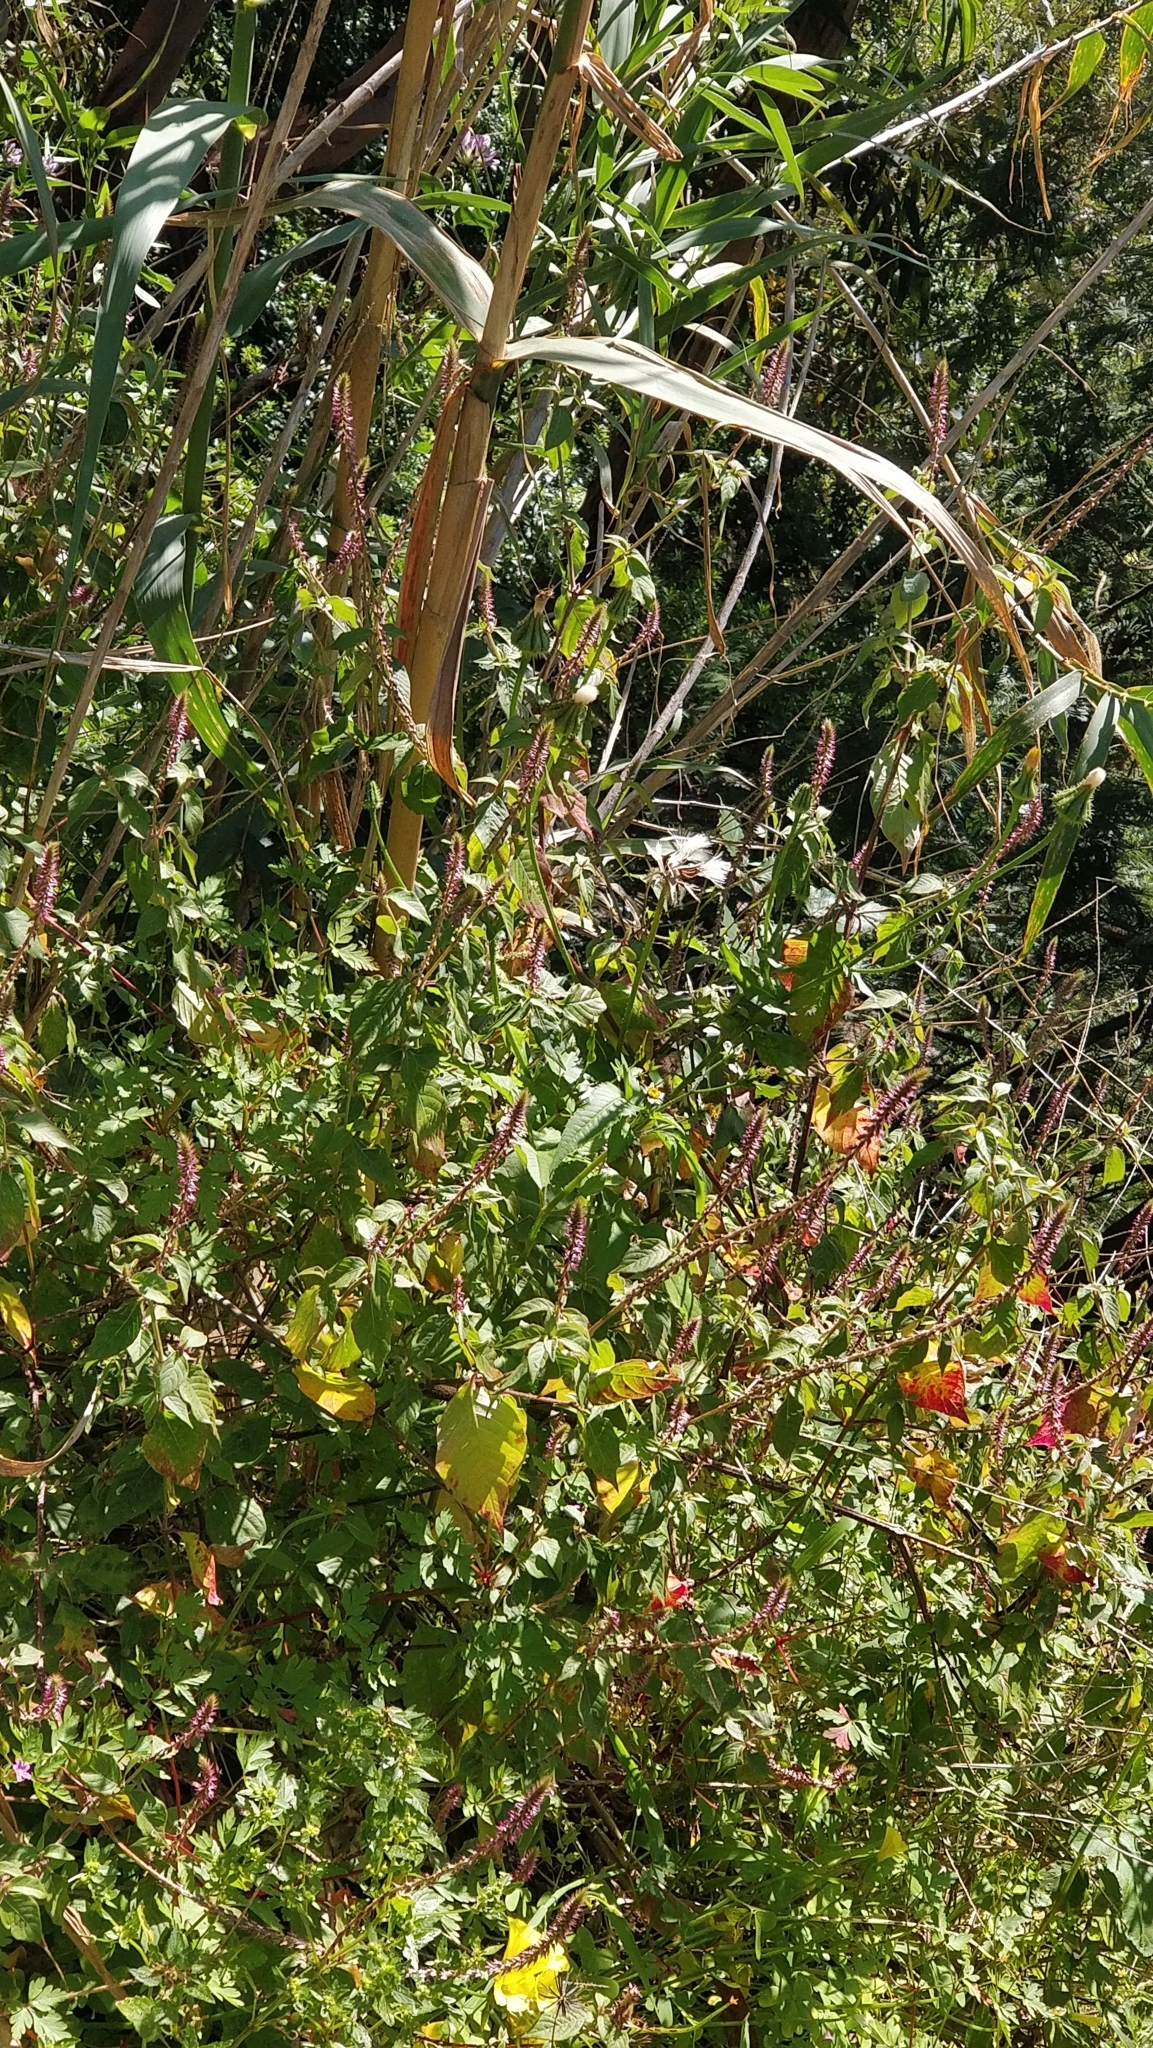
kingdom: Plantae
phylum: Tracheophyta
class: Magnoliopsida
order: Caryophyllales
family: Amaranthaceae
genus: Achyranthes
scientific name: Achyranthes aspera
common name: Devil's horsewhip
